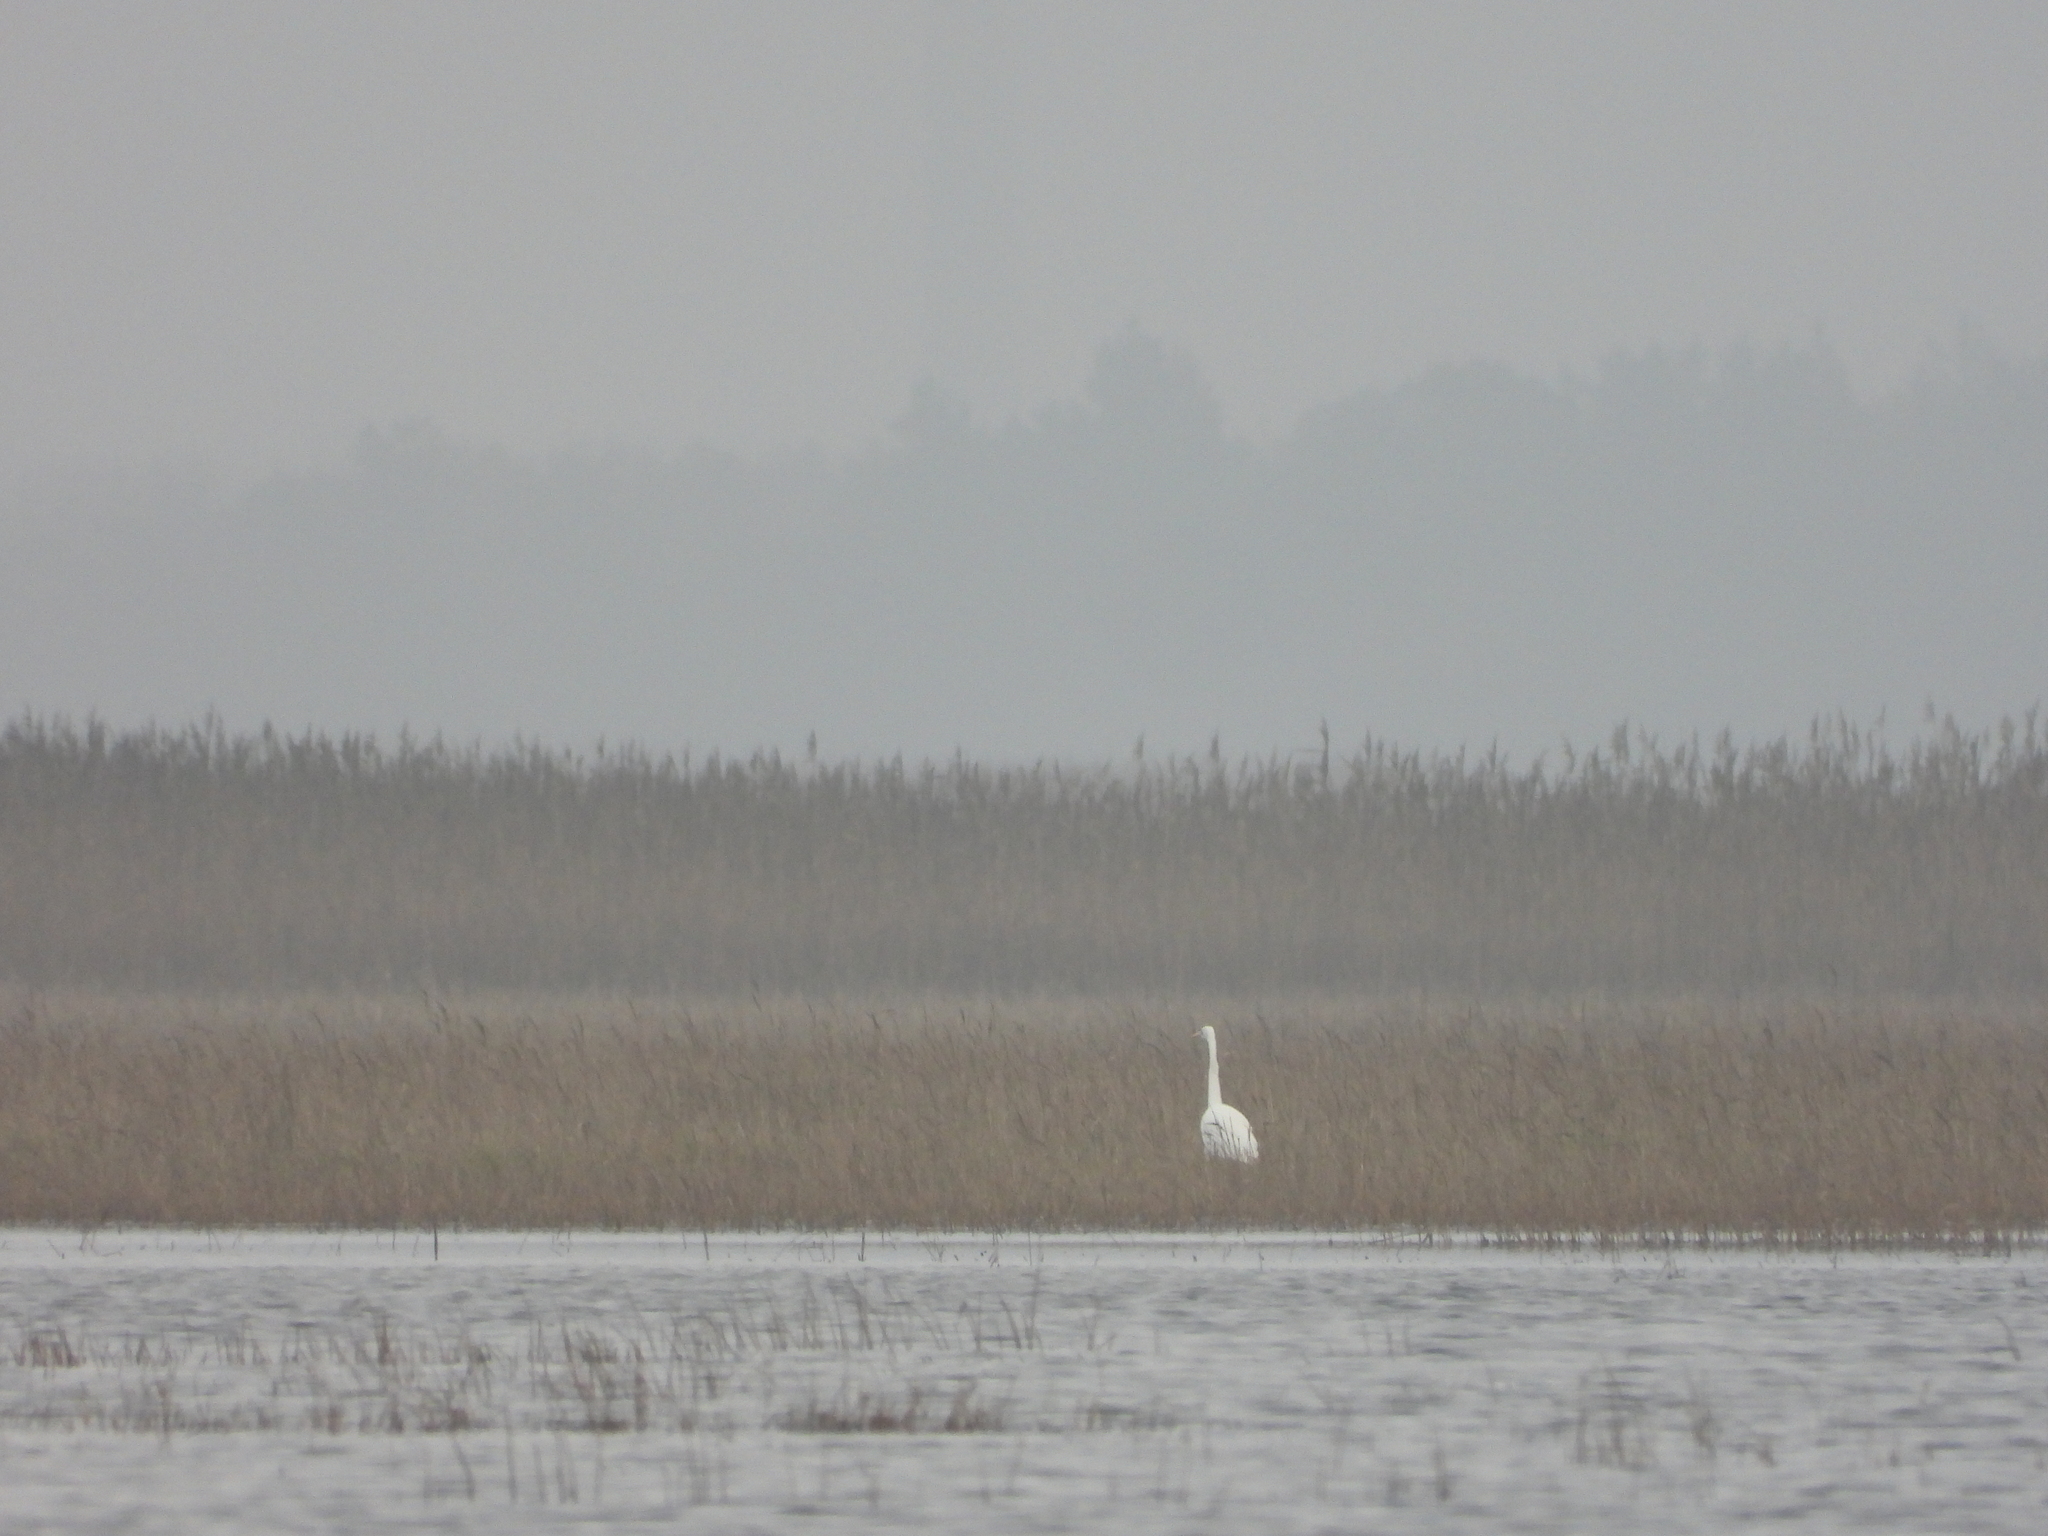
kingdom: Animalia
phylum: Chordata
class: Aves
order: Pelecaniformes
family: Ardeidae
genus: Ardea
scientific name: Ardea alba
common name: Great egret
